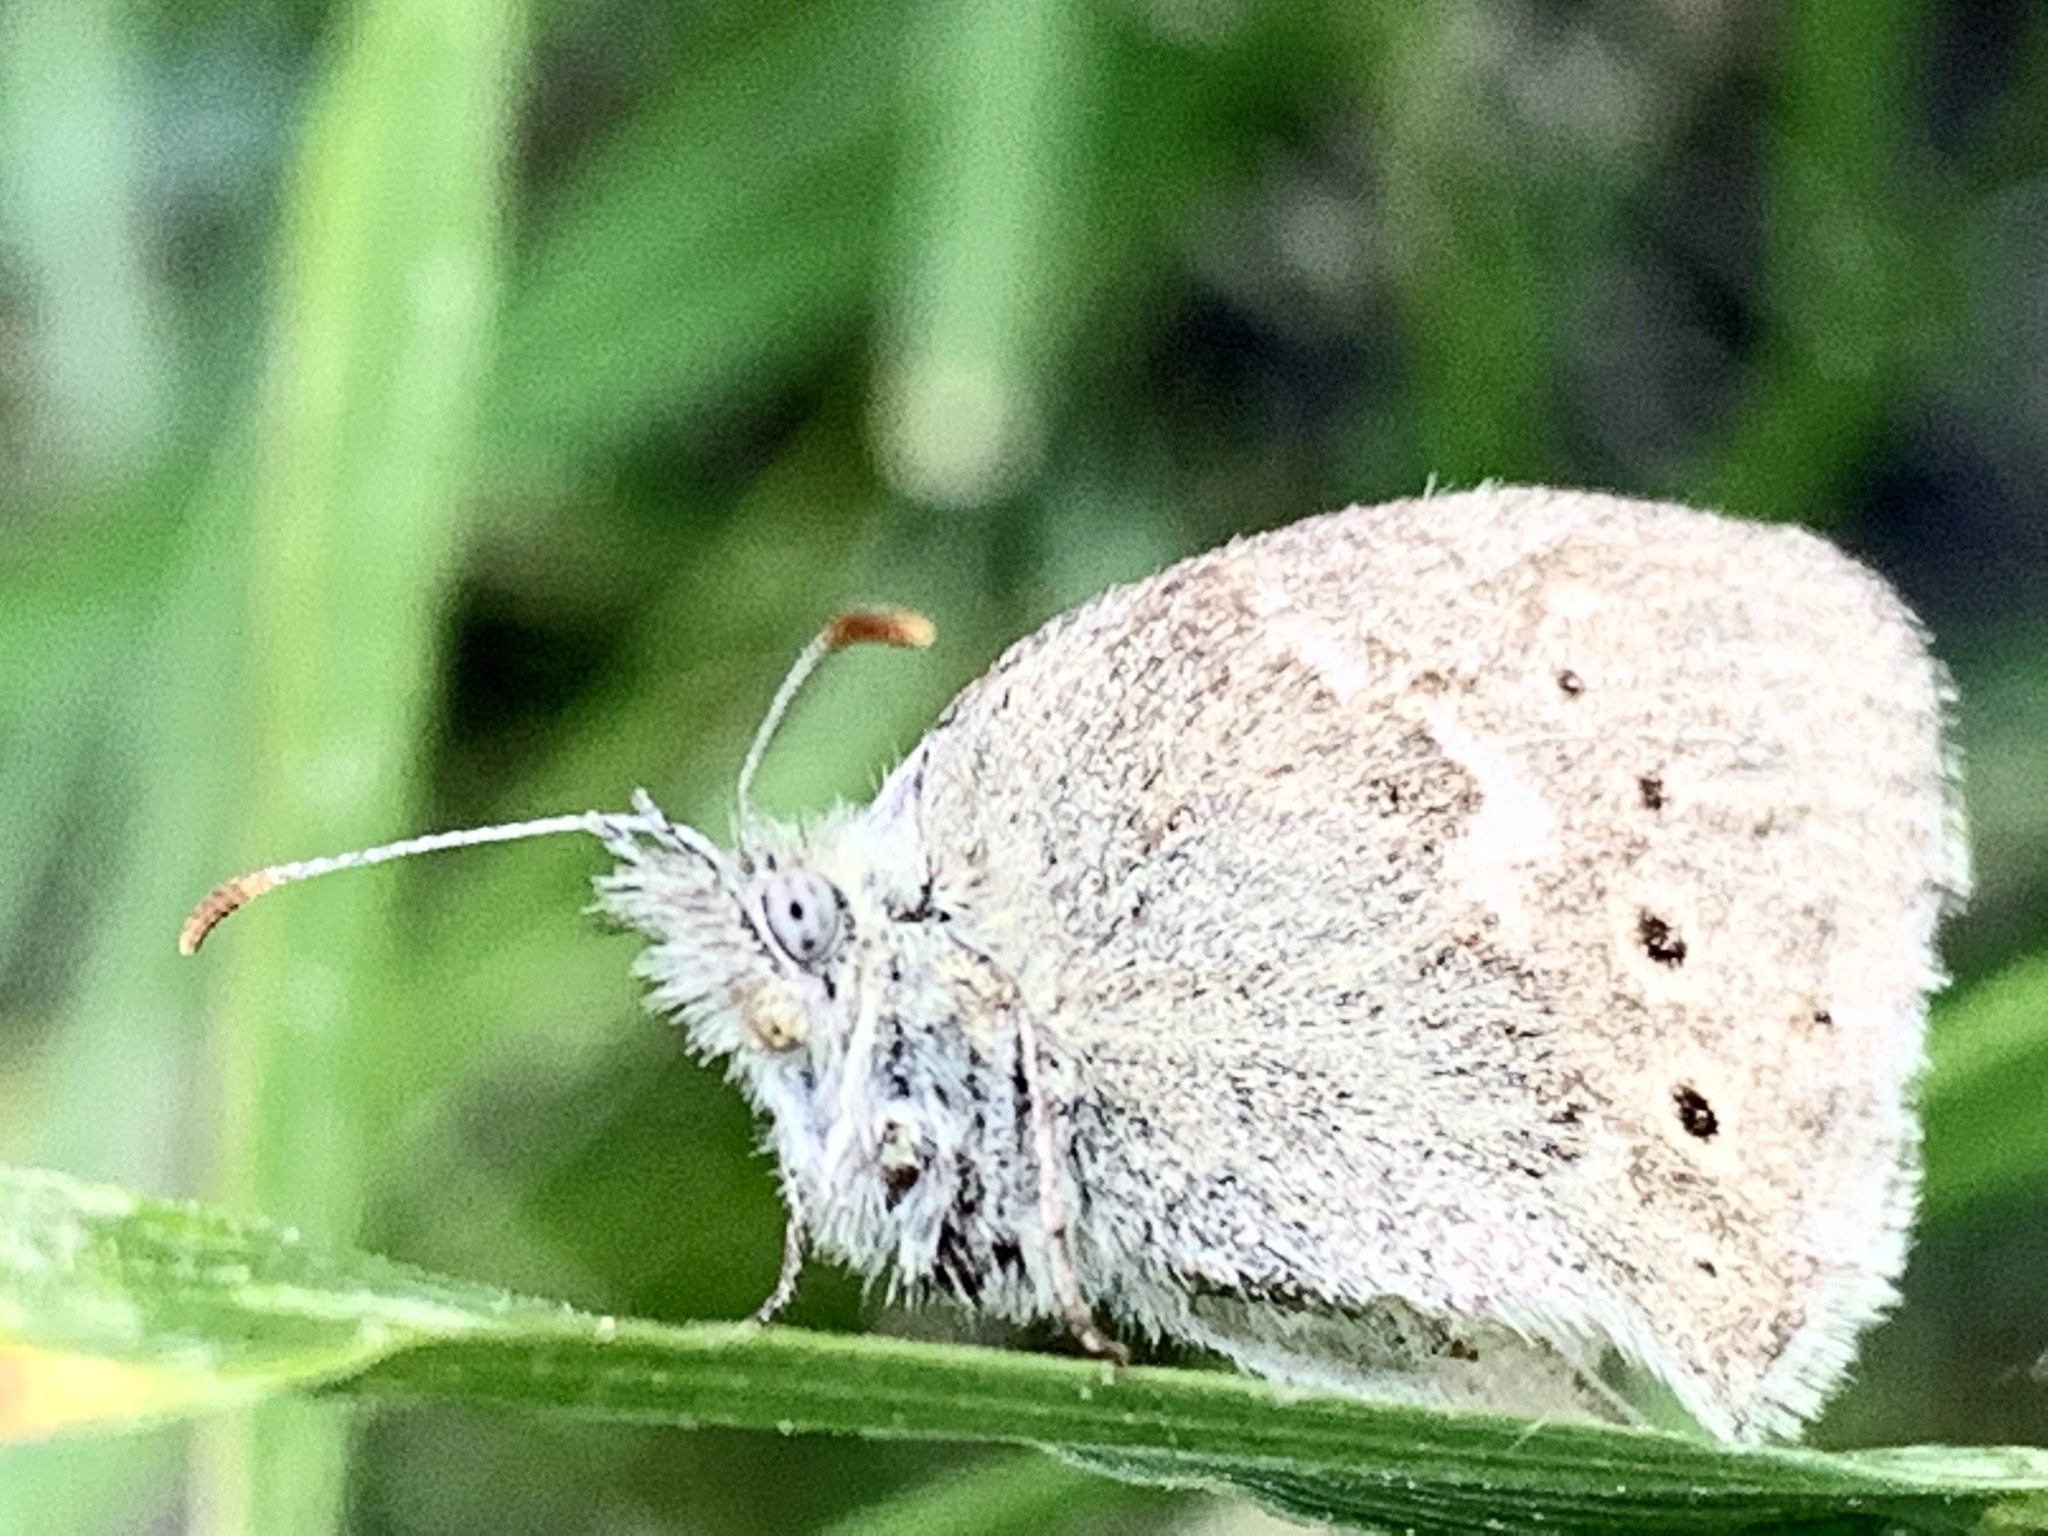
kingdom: Animalia
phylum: Arthropoda
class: Insecta
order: Lepidoptera
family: Nymphalidae
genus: Coenonympha
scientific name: Coenonympha california
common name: Common ringlet
